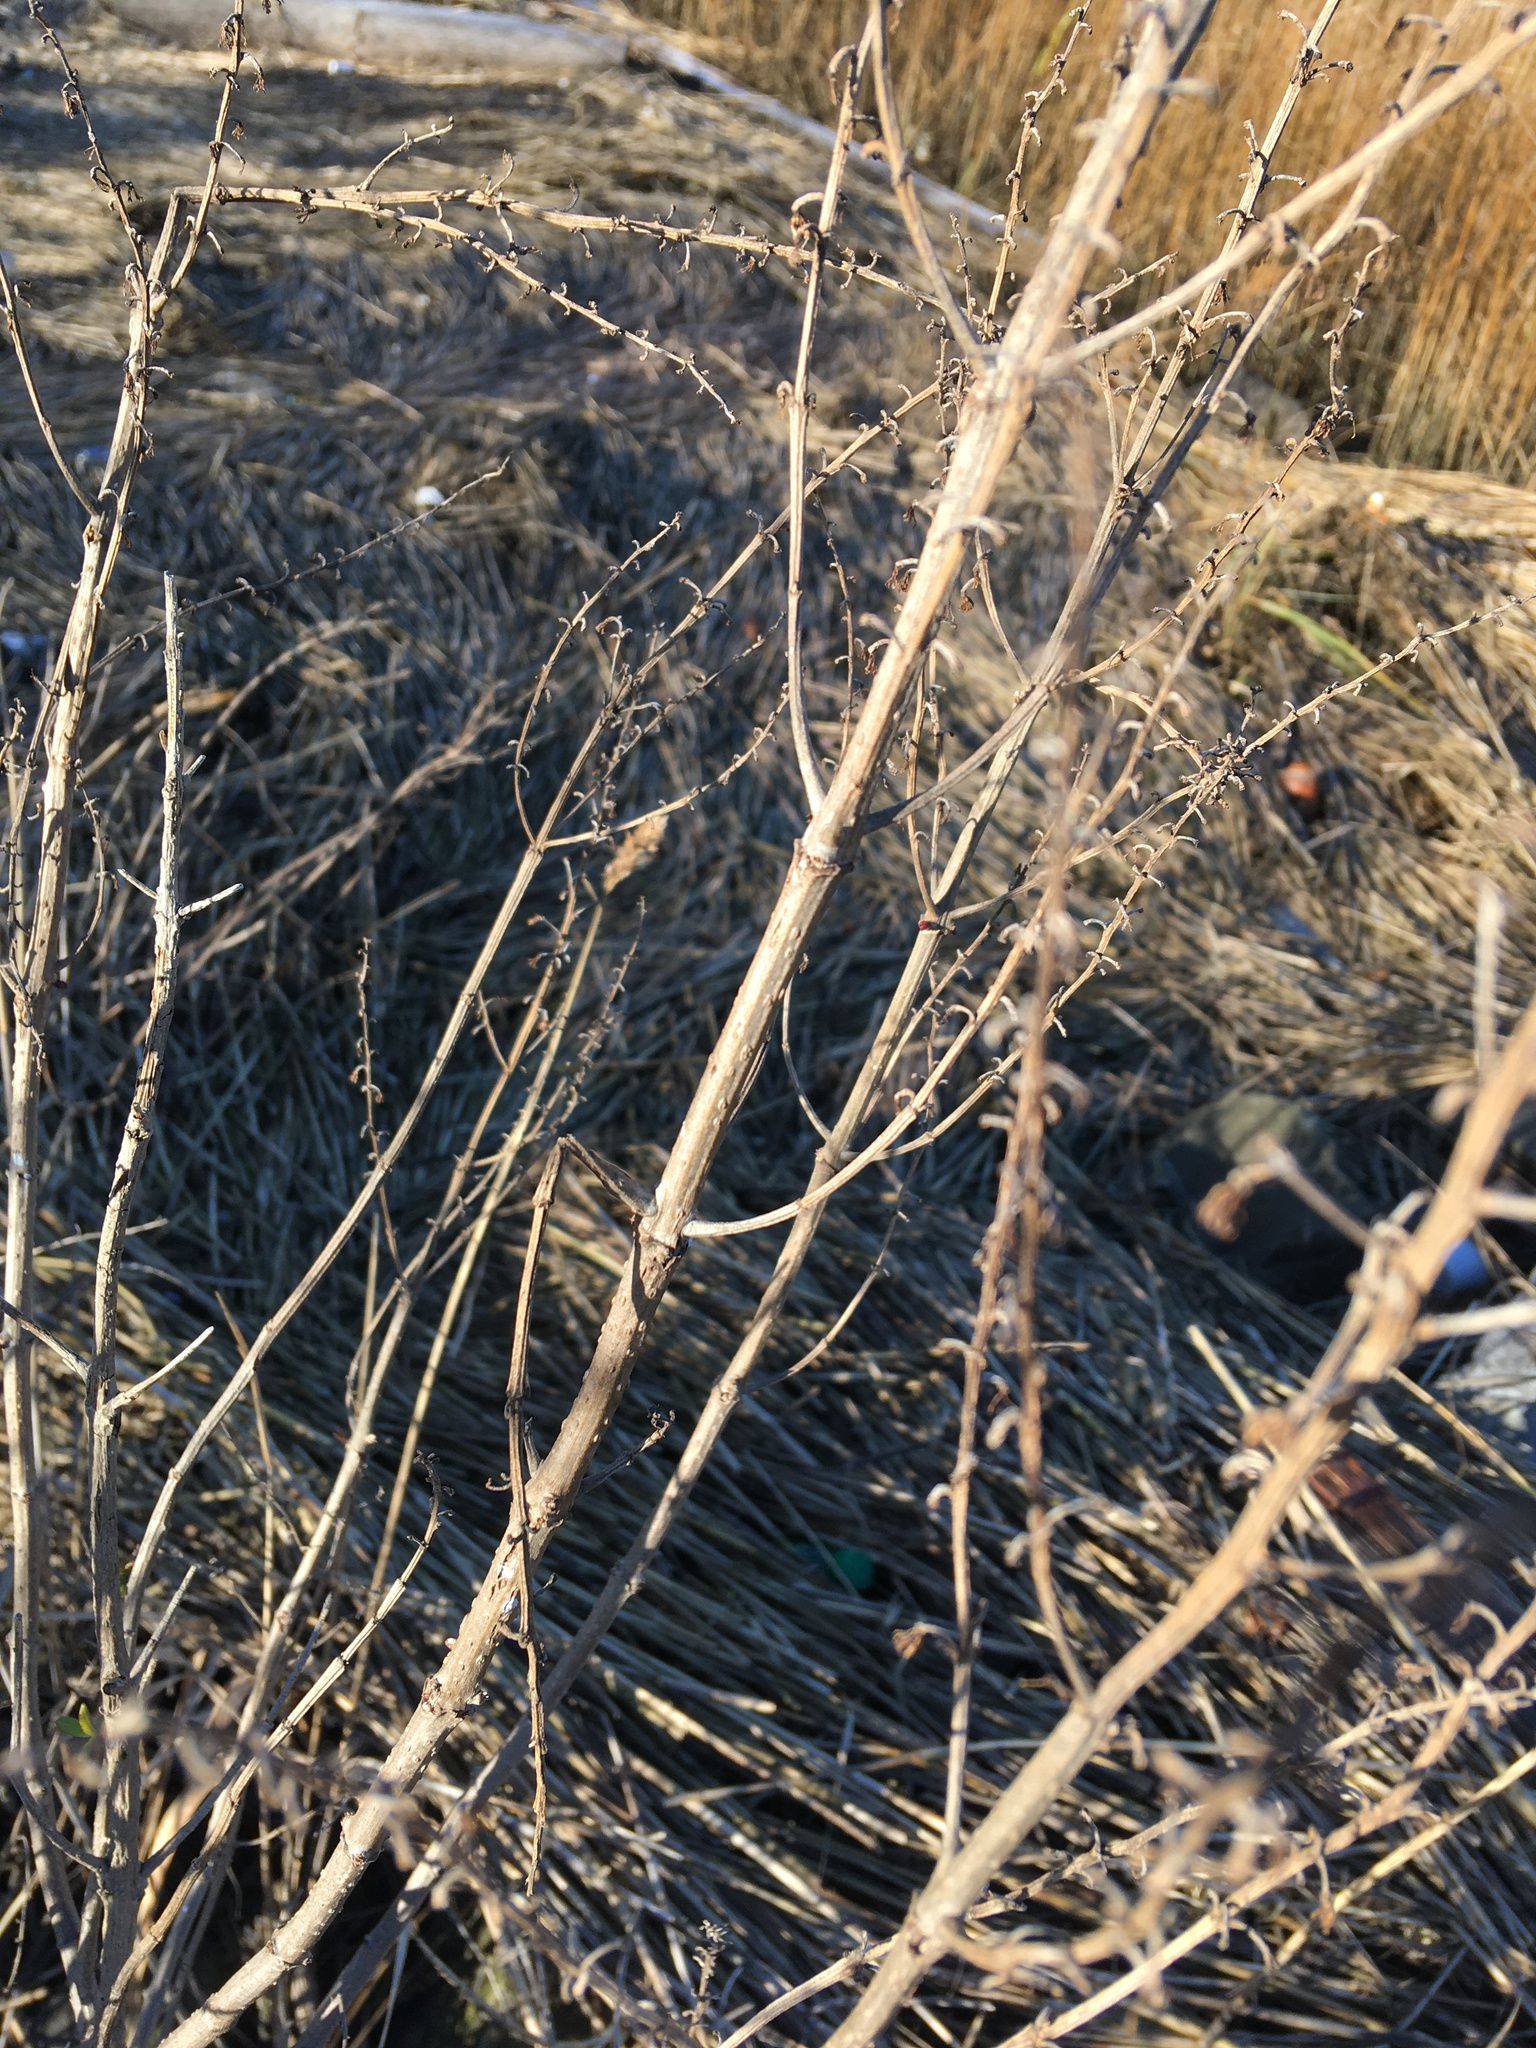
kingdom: Plantae
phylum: Tracheophyta
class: Magnoliopsida
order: Asterales
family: Asteraceae
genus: Iva
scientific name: Iva frutescens
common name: Big-leaved marsh-elder
